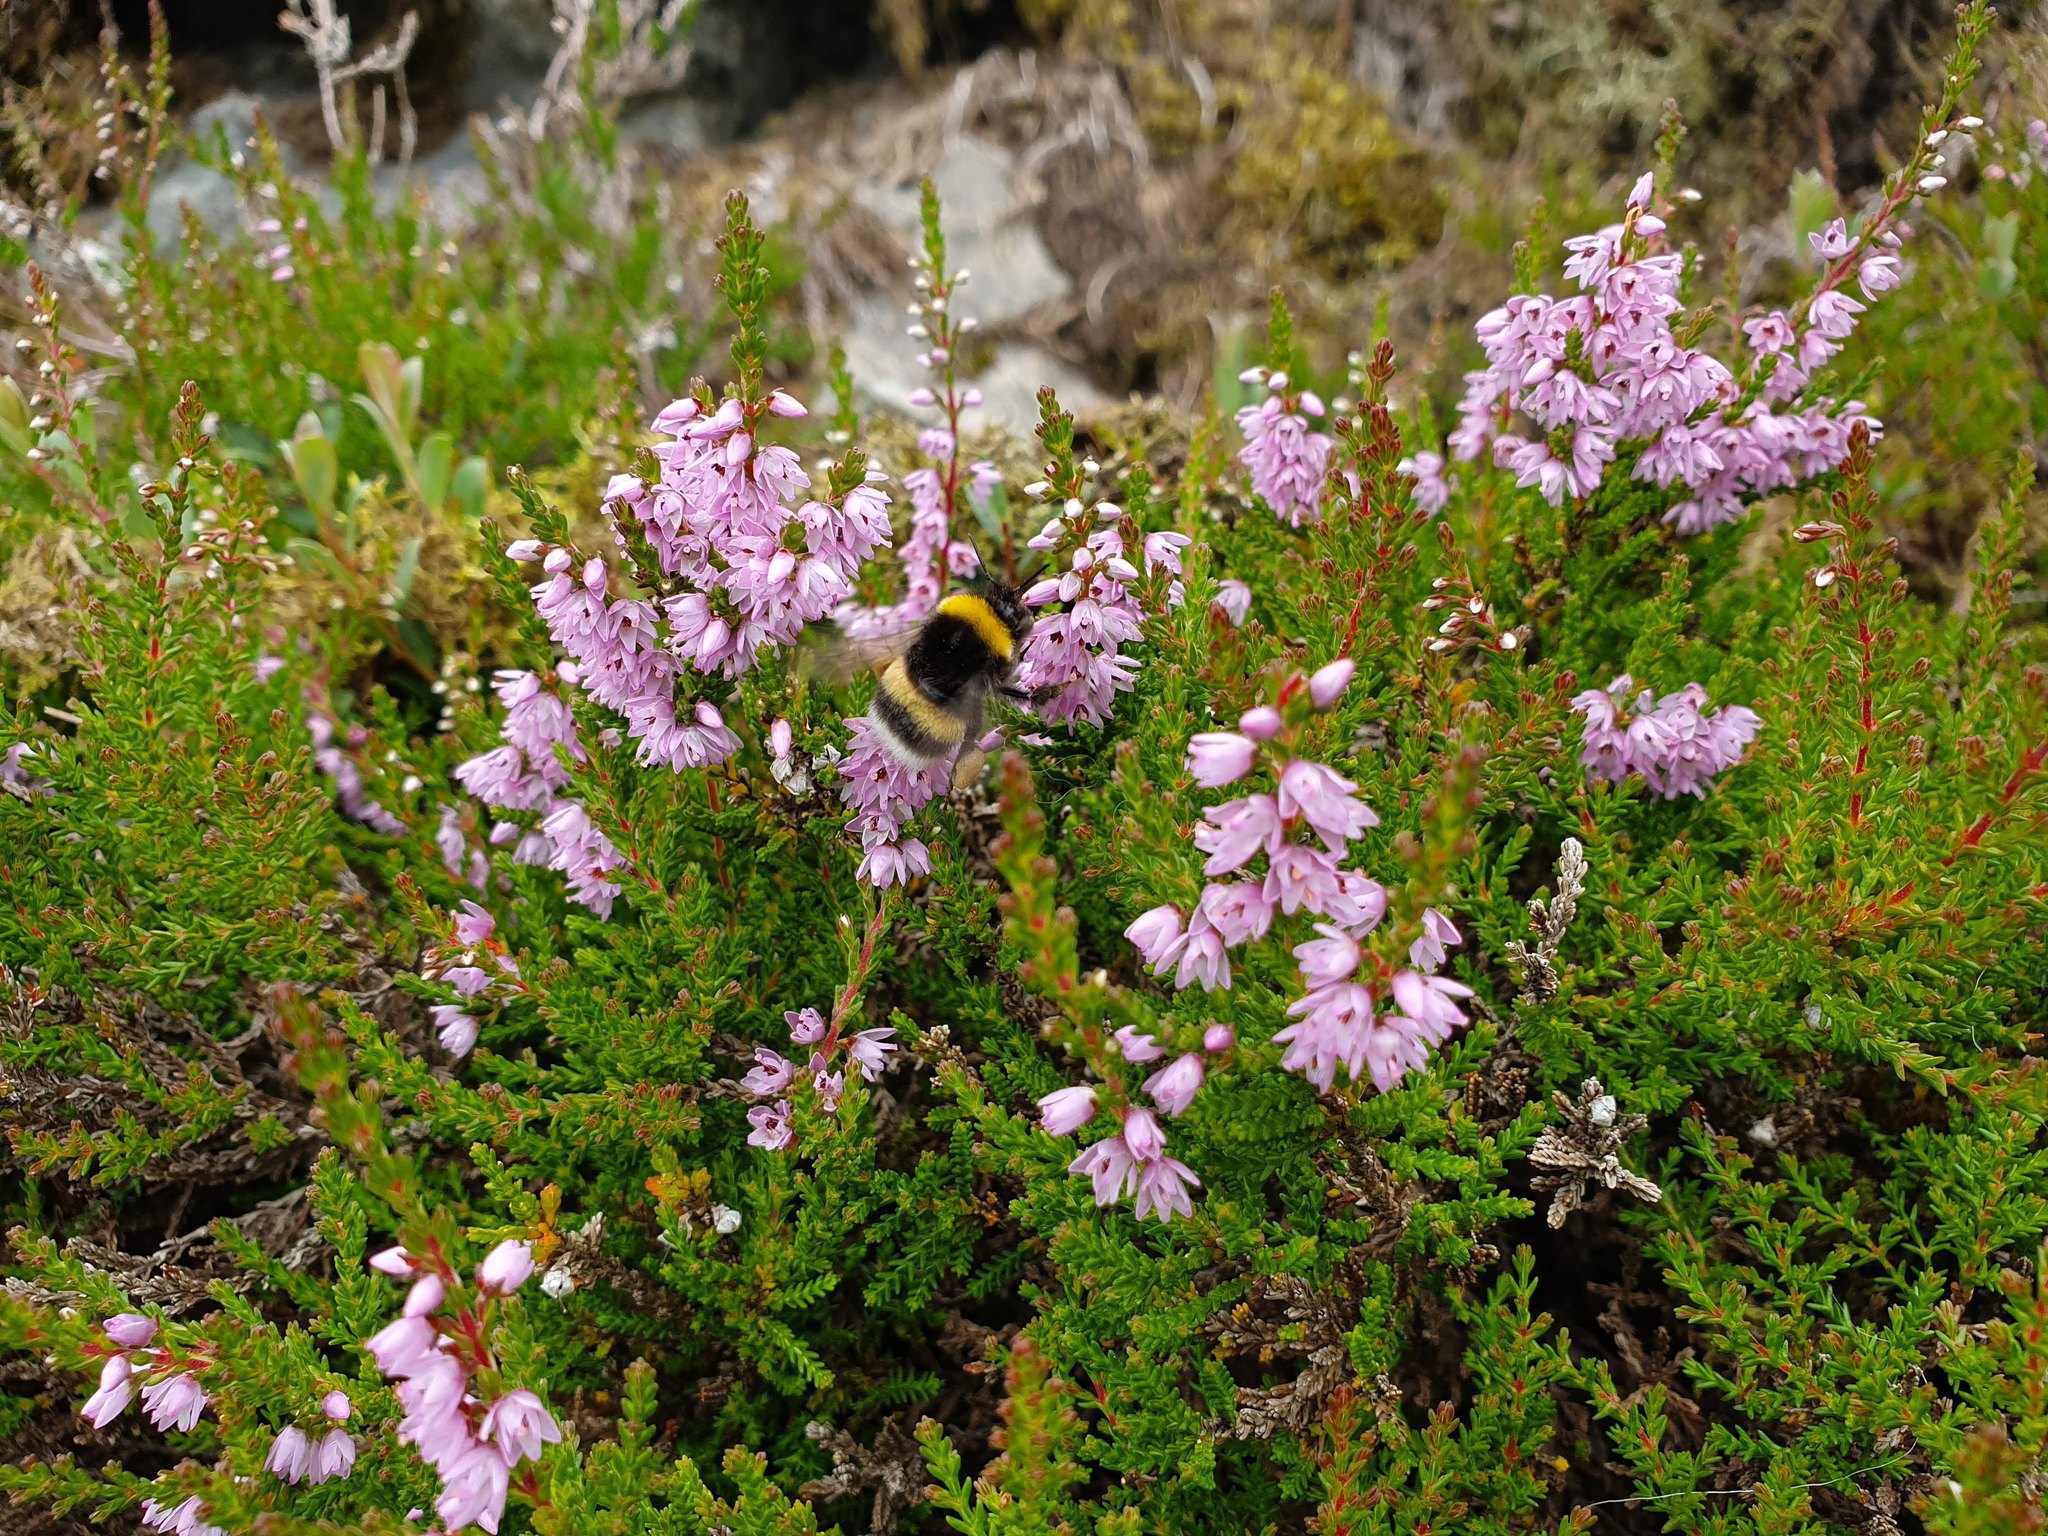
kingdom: Plantae
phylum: Tracheophyta
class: Magnoliopsida
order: Ericales
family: Ericaceae
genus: Calluna
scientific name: Calluna vulgaris
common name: Heather
